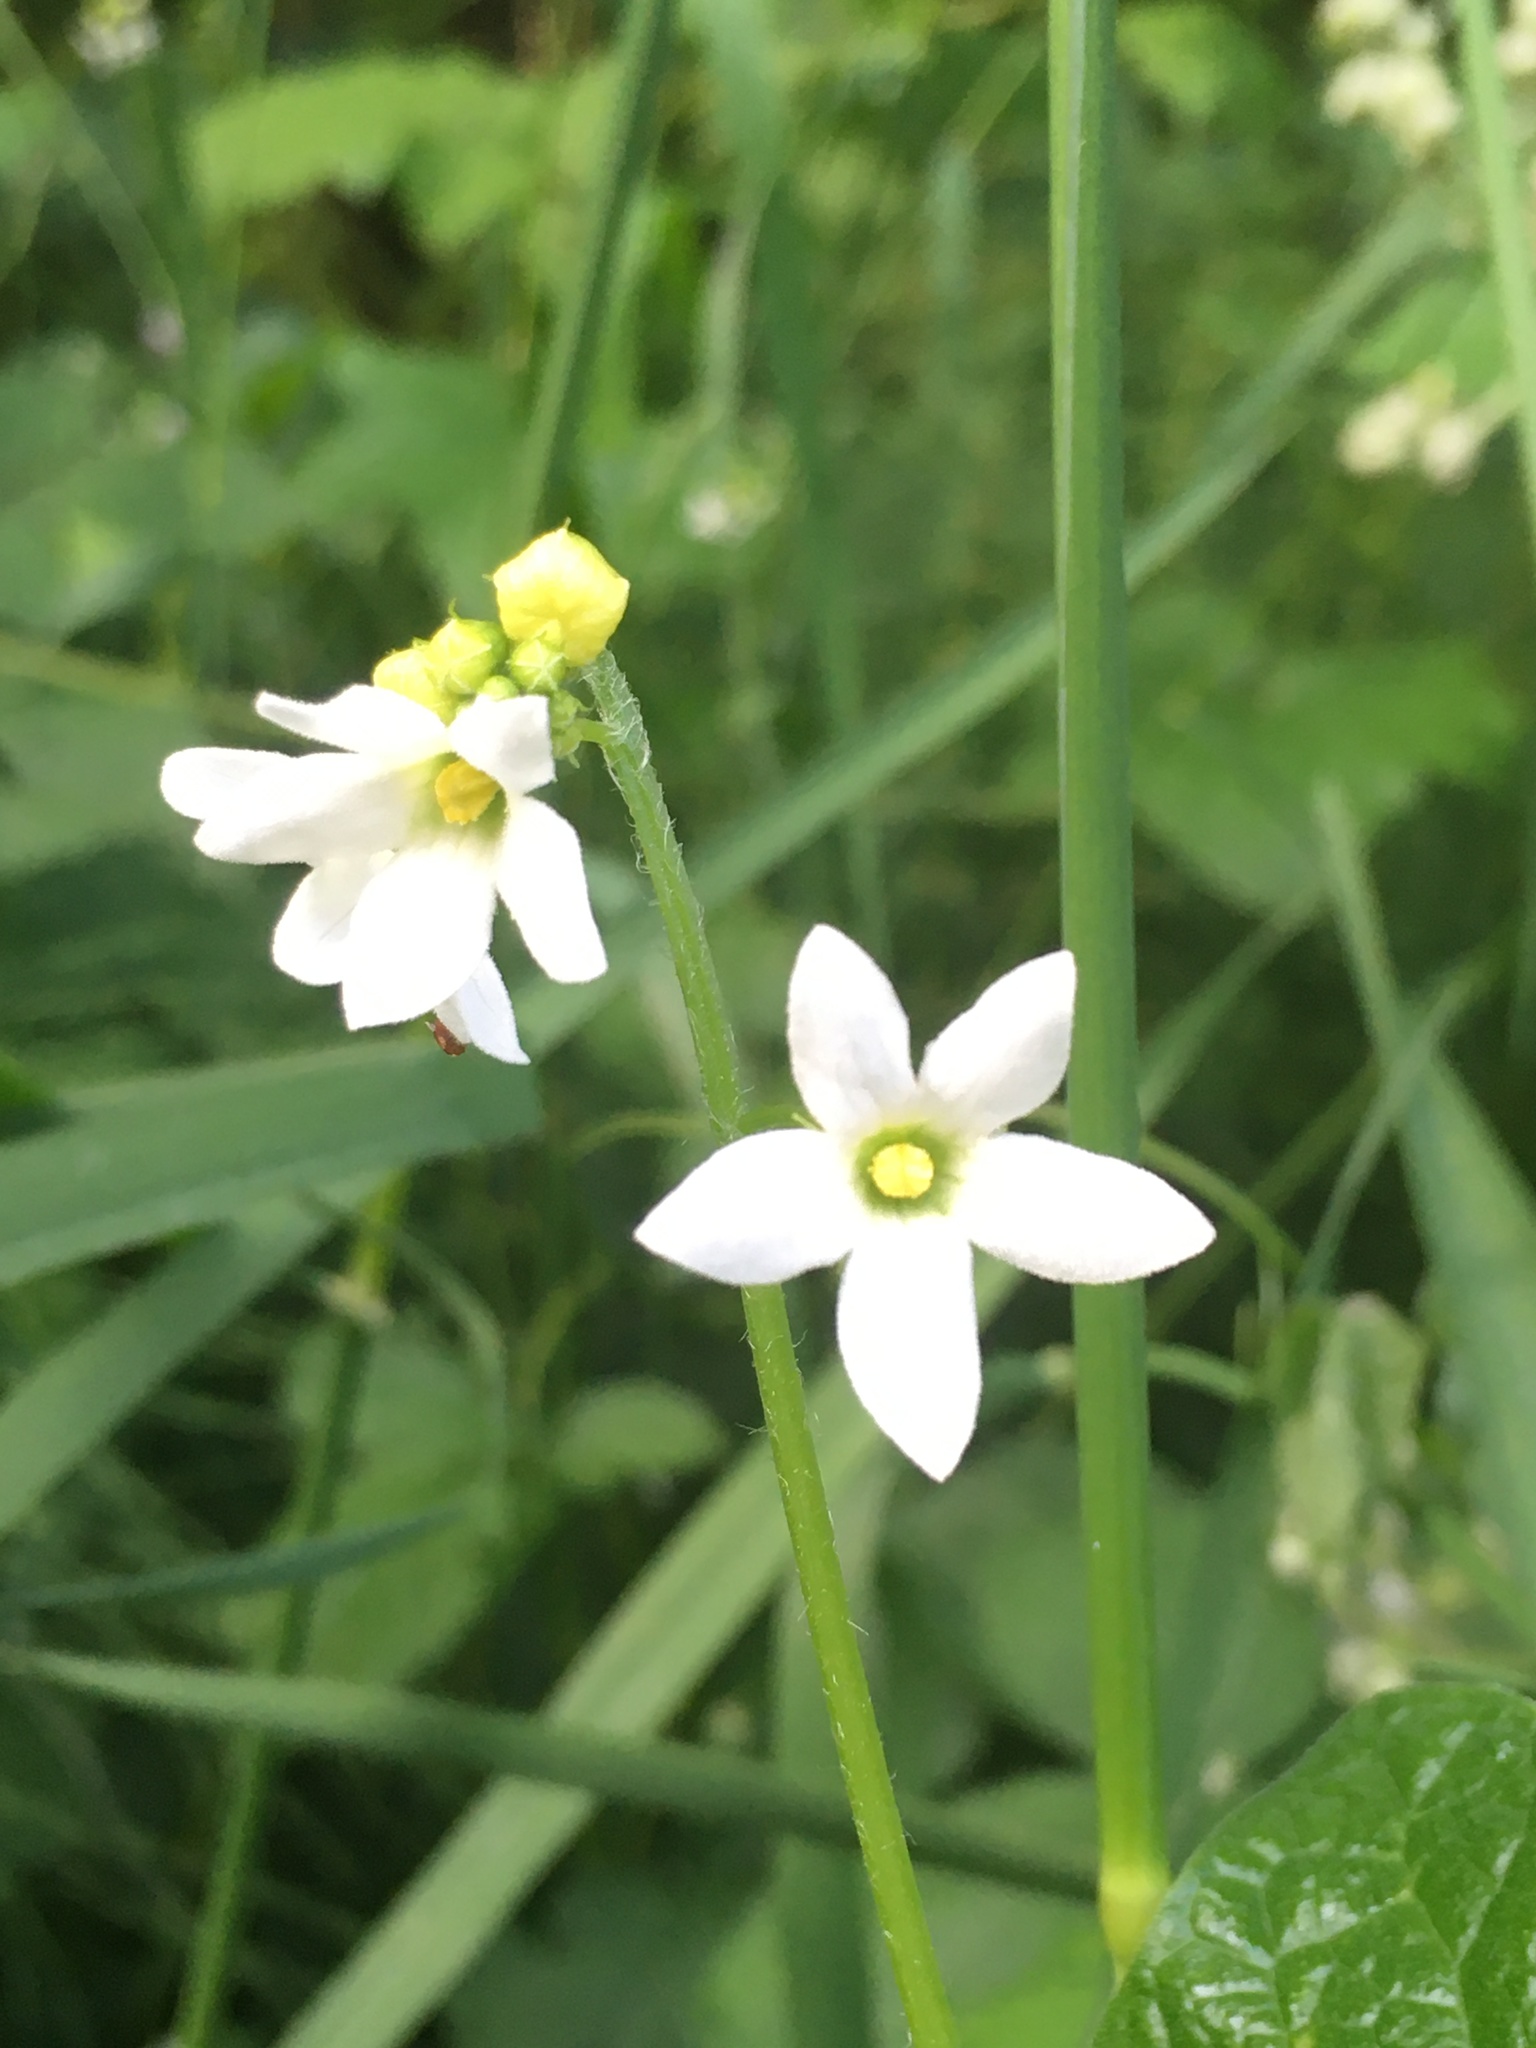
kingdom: Plantae
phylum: Tracheophyta
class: Magnoliopsida
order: Cucurbitales
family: Cucurbitaceae
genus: Marah
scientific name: Marah oregana
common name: Coastal manroot
